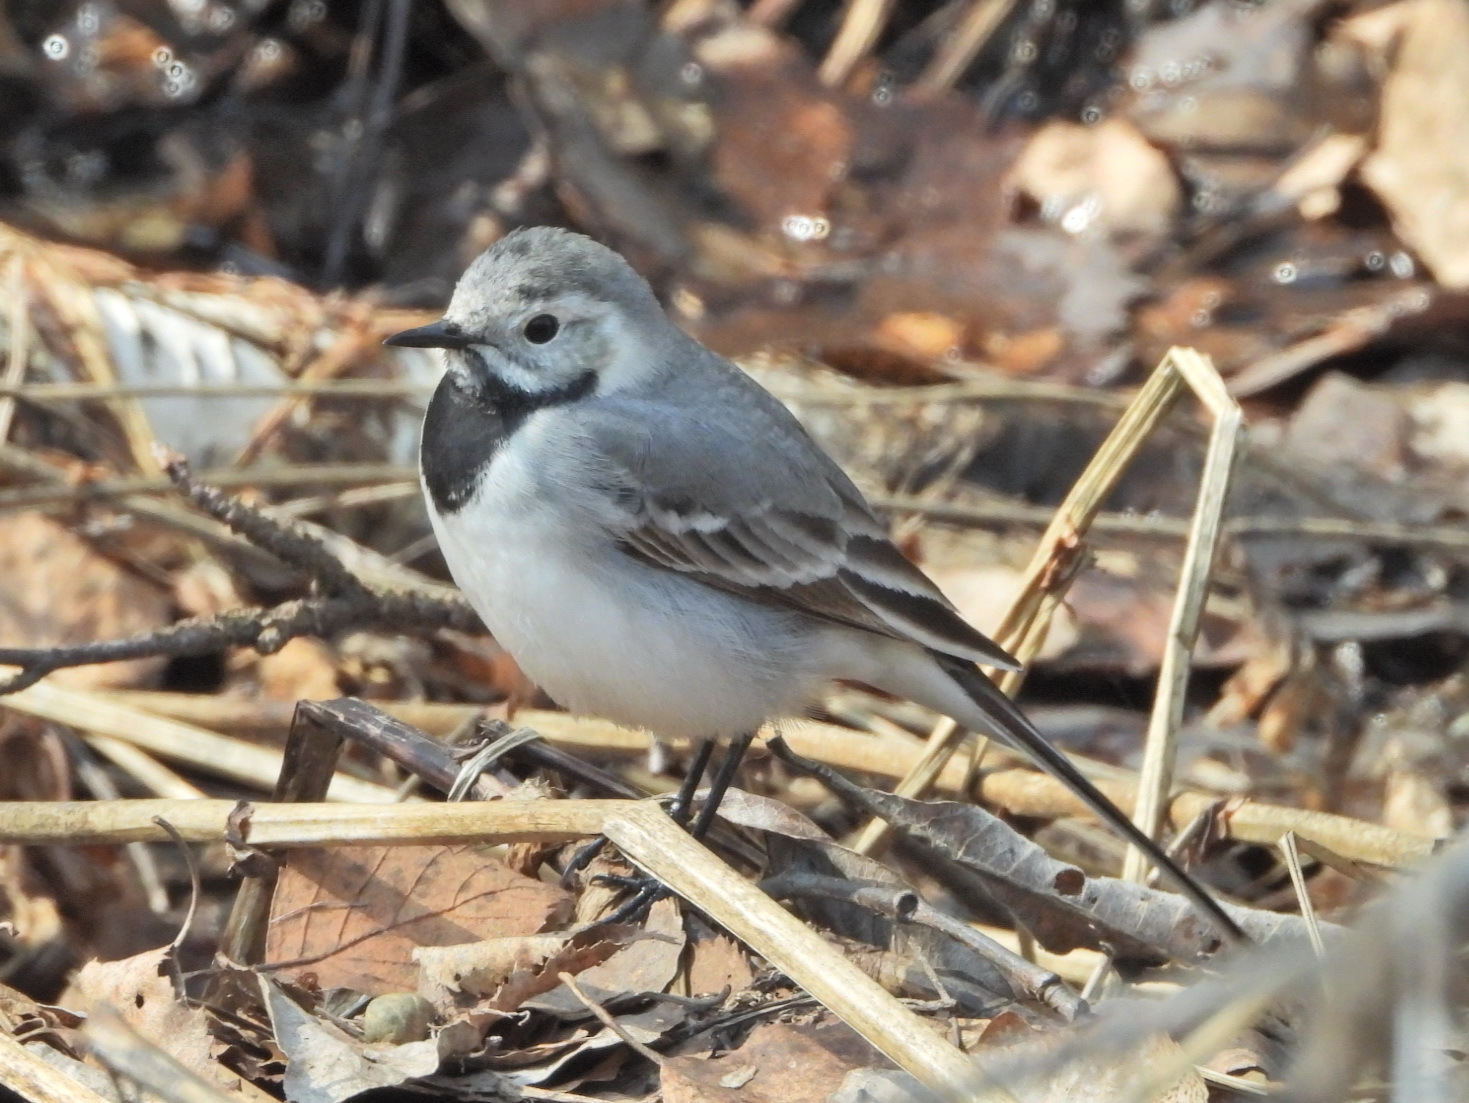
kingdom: Animalia
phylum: Chordata
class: Aves
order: Passeriformes
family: Motacillidae
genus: Motacilla
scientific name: Motacilla alba
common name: White wagtail
